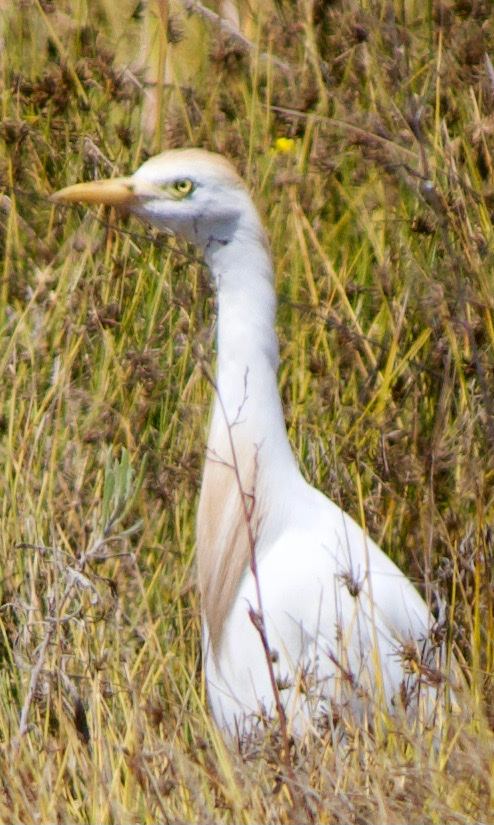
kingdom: Animalia
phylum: Chordata
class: Aves
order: Pelecaniformes
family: Ardeidae
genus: Bubulcus
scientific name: Bubulcus ibis
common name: Cattle egret
